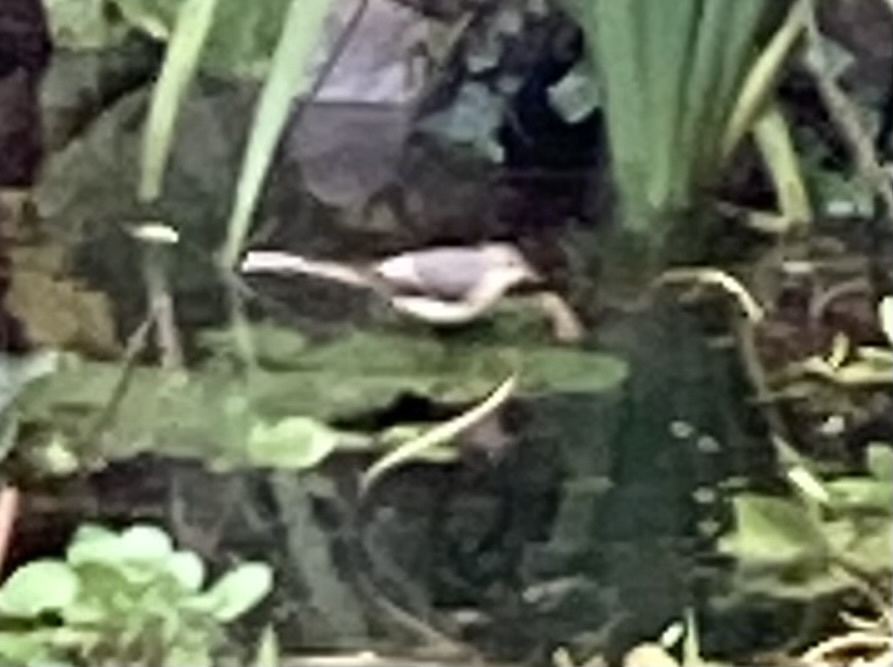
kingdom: Animalia
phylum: Chordata
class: Aves
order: Passeriformes
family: Motacillidae
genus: Motacilla
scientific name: Motacilla cinerea
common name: Grey wagtail
